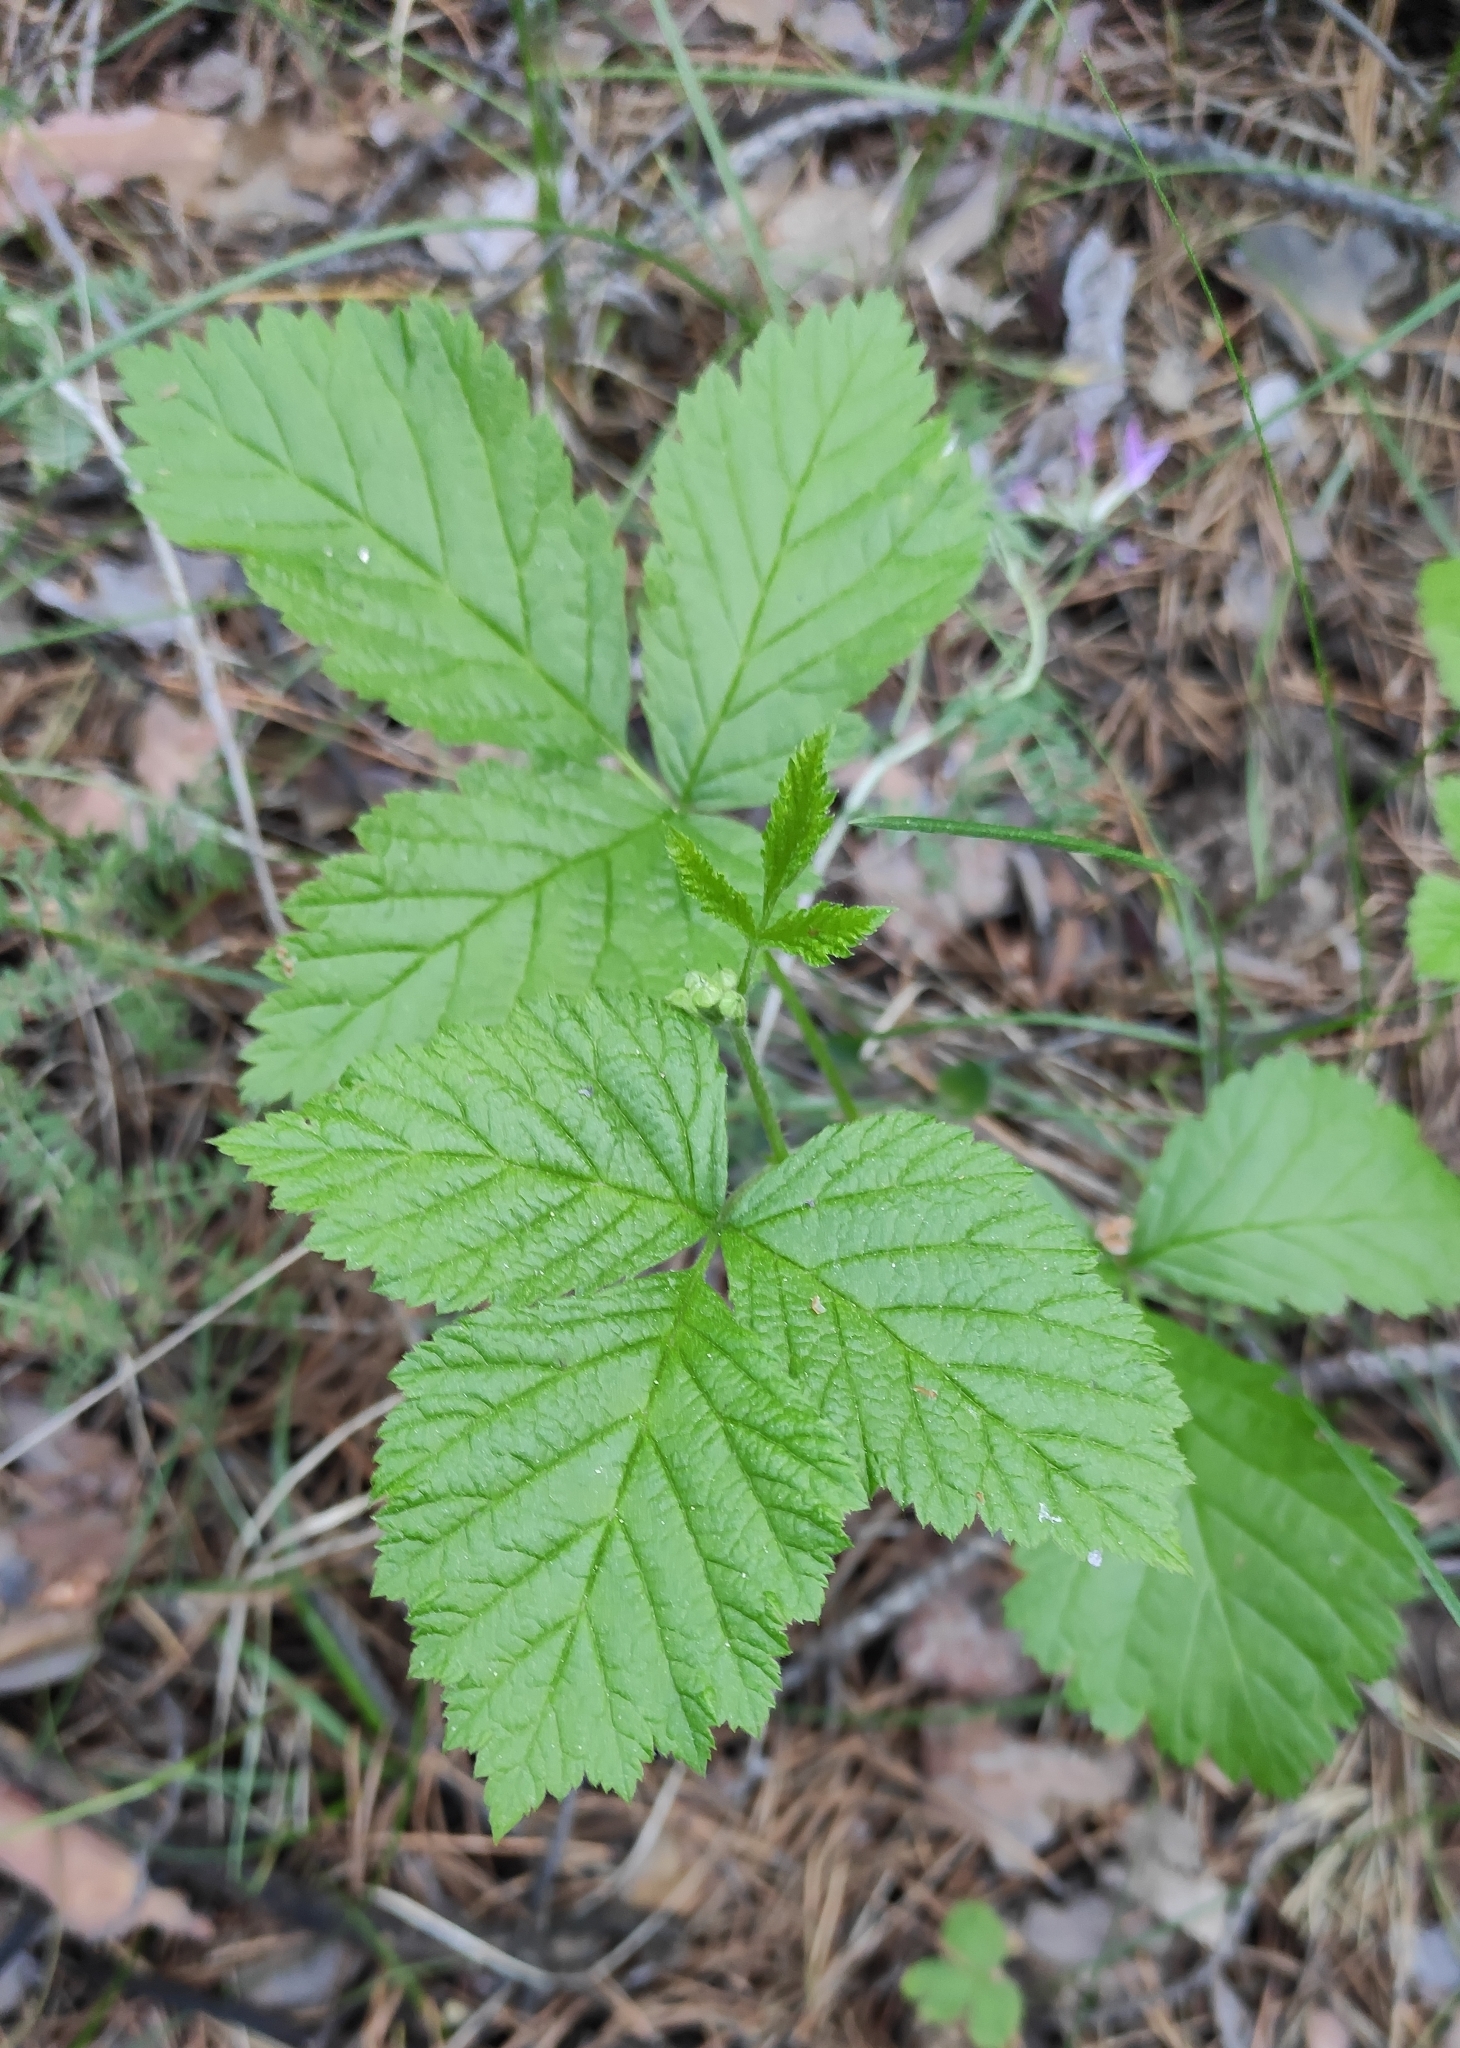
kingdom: Plantae
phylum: Tracheophyta
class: Magnoliopsida
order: Rosales
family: Rosaceae
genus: Rubus
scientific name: Rubus saxatilis
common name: Stone bramble
